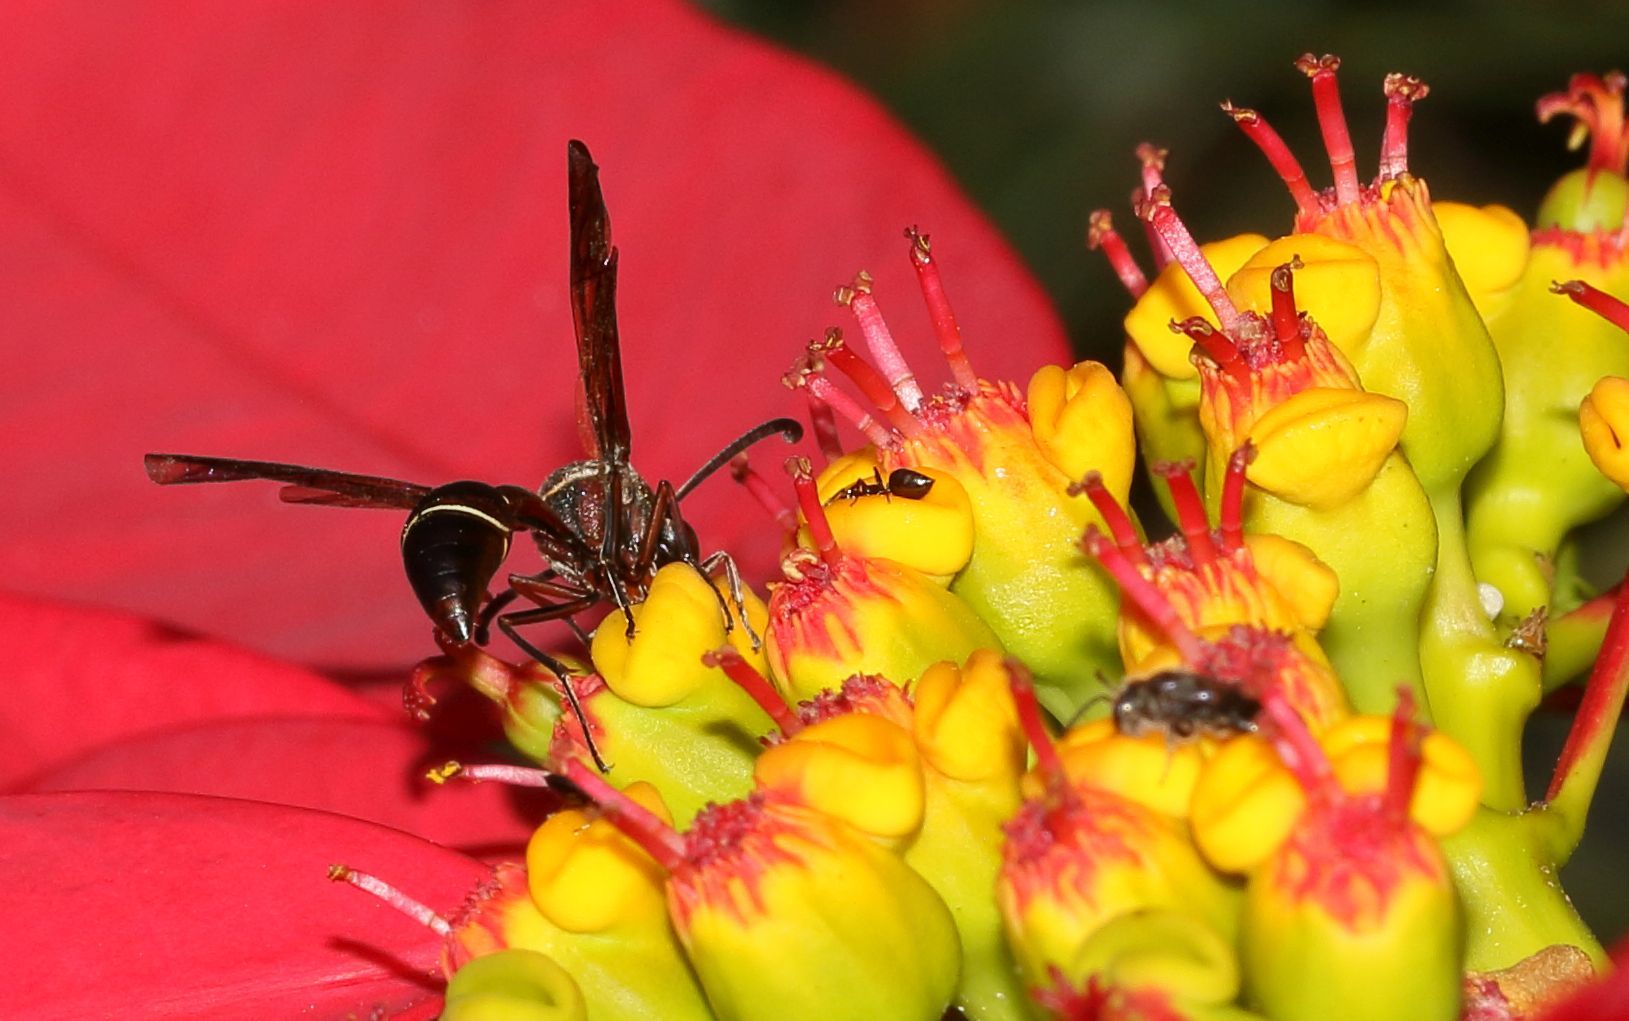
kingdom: Animalia
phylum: Arthropoda
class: Insecta
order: Hymenoptera
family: Eumenidae
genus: Afreumenes
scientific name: Afreumenes
